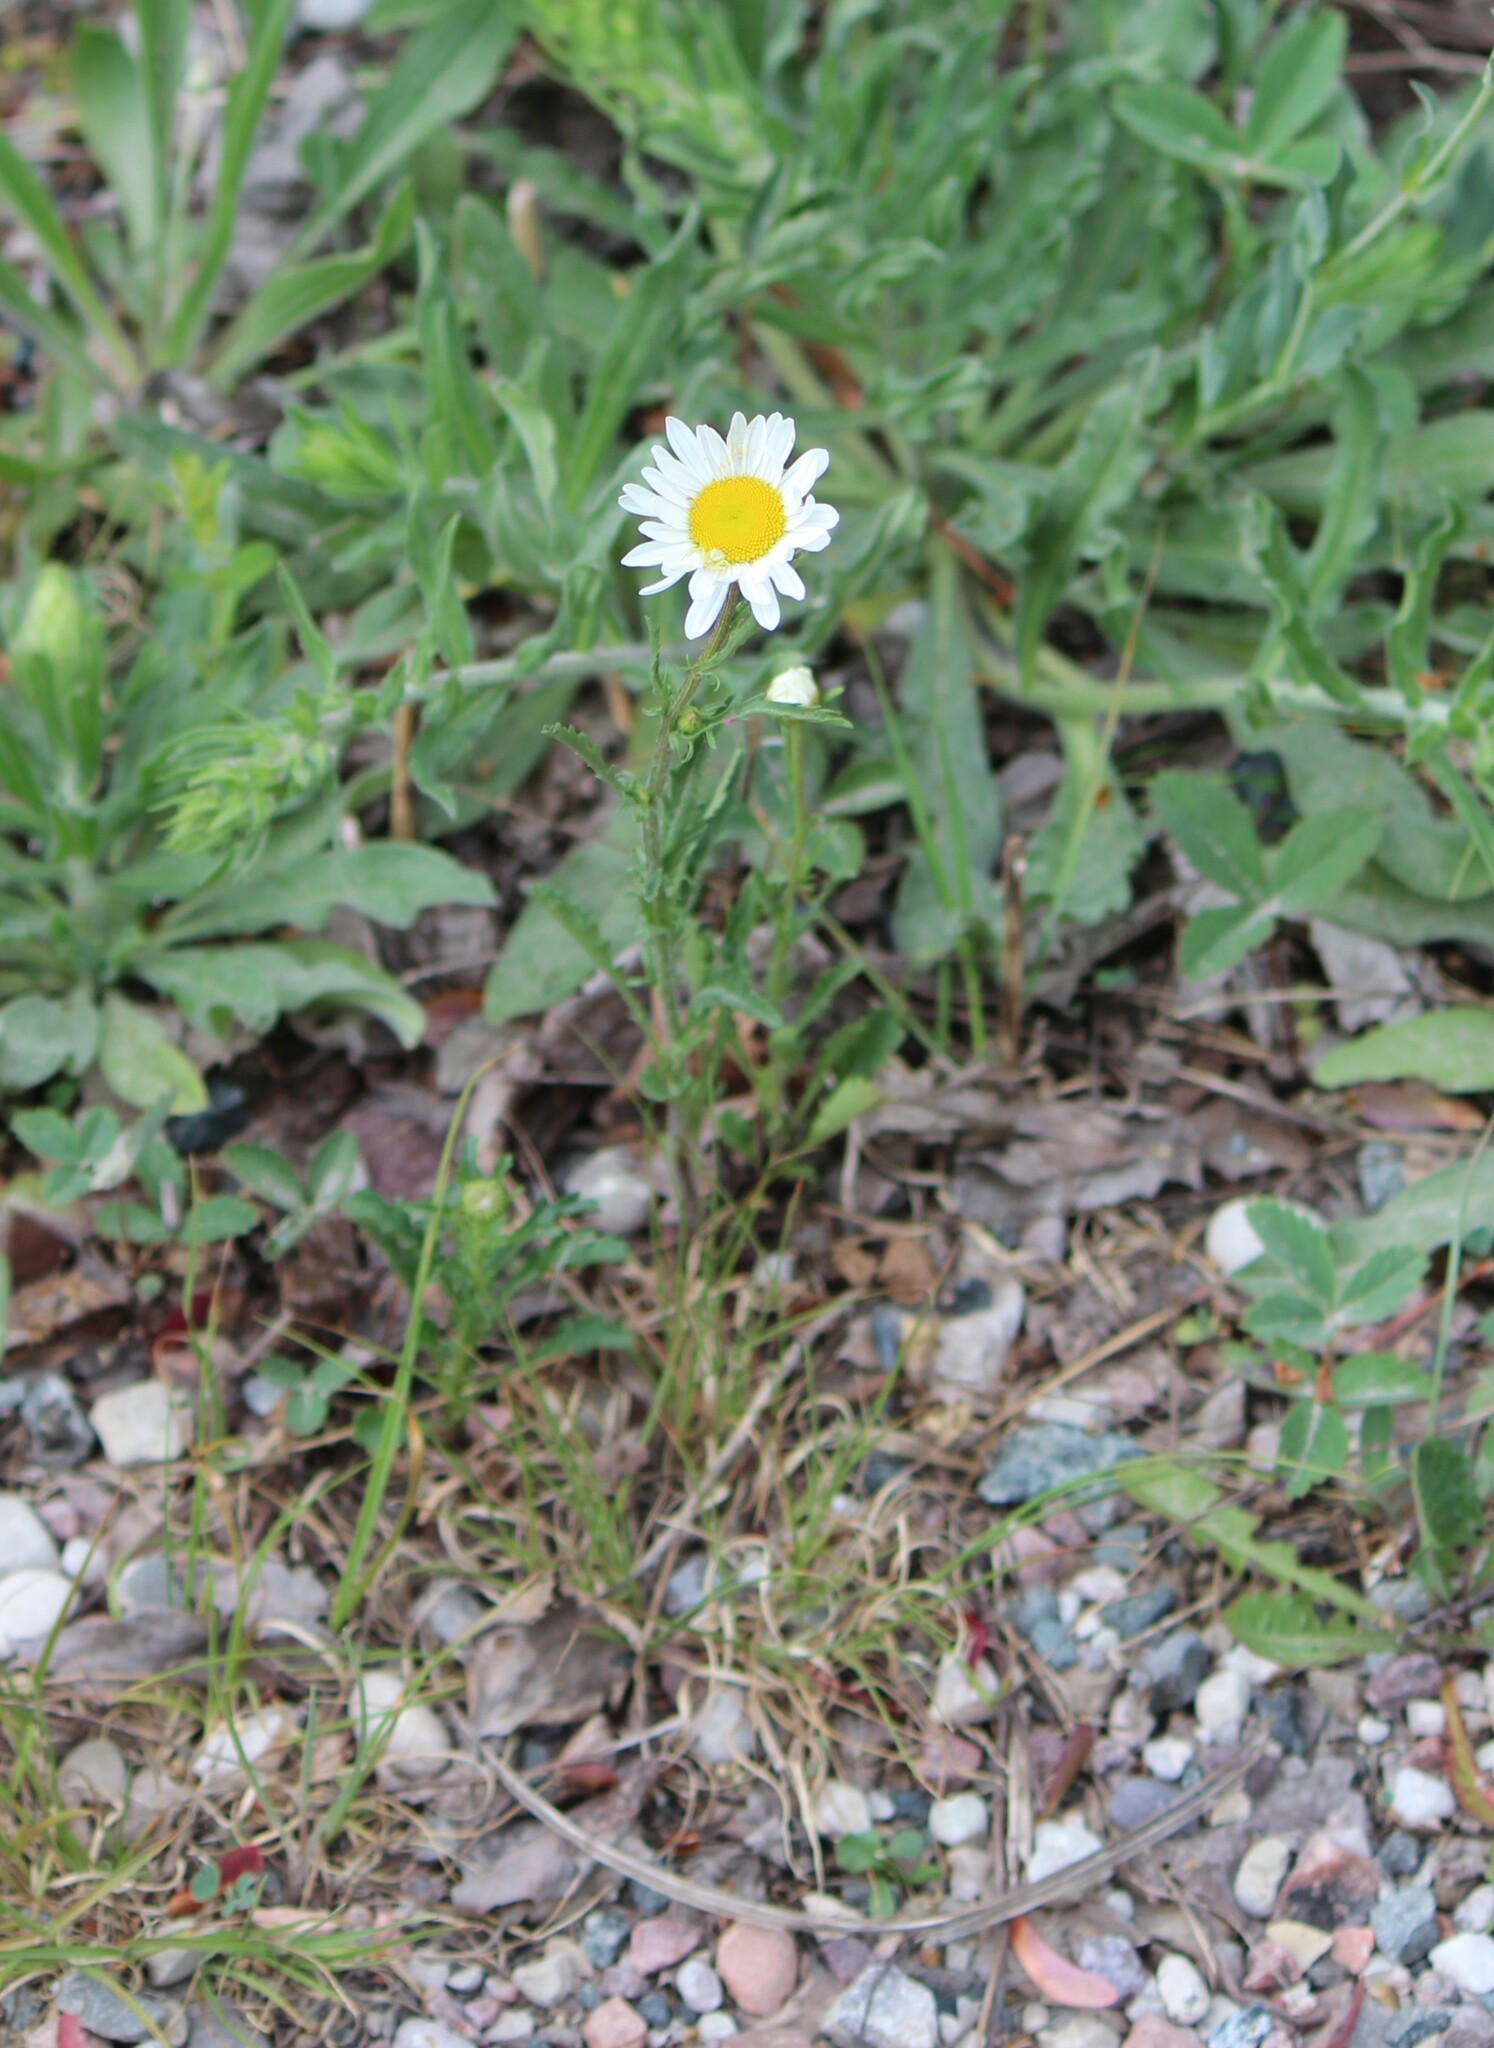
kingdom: Plantae
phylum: Tracheophyta
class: Magnoliopsida
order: Asterales
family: Asteraceae
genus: Leucanthemum
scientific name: Leucanthemum vulgare
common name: Oxeye daisy
